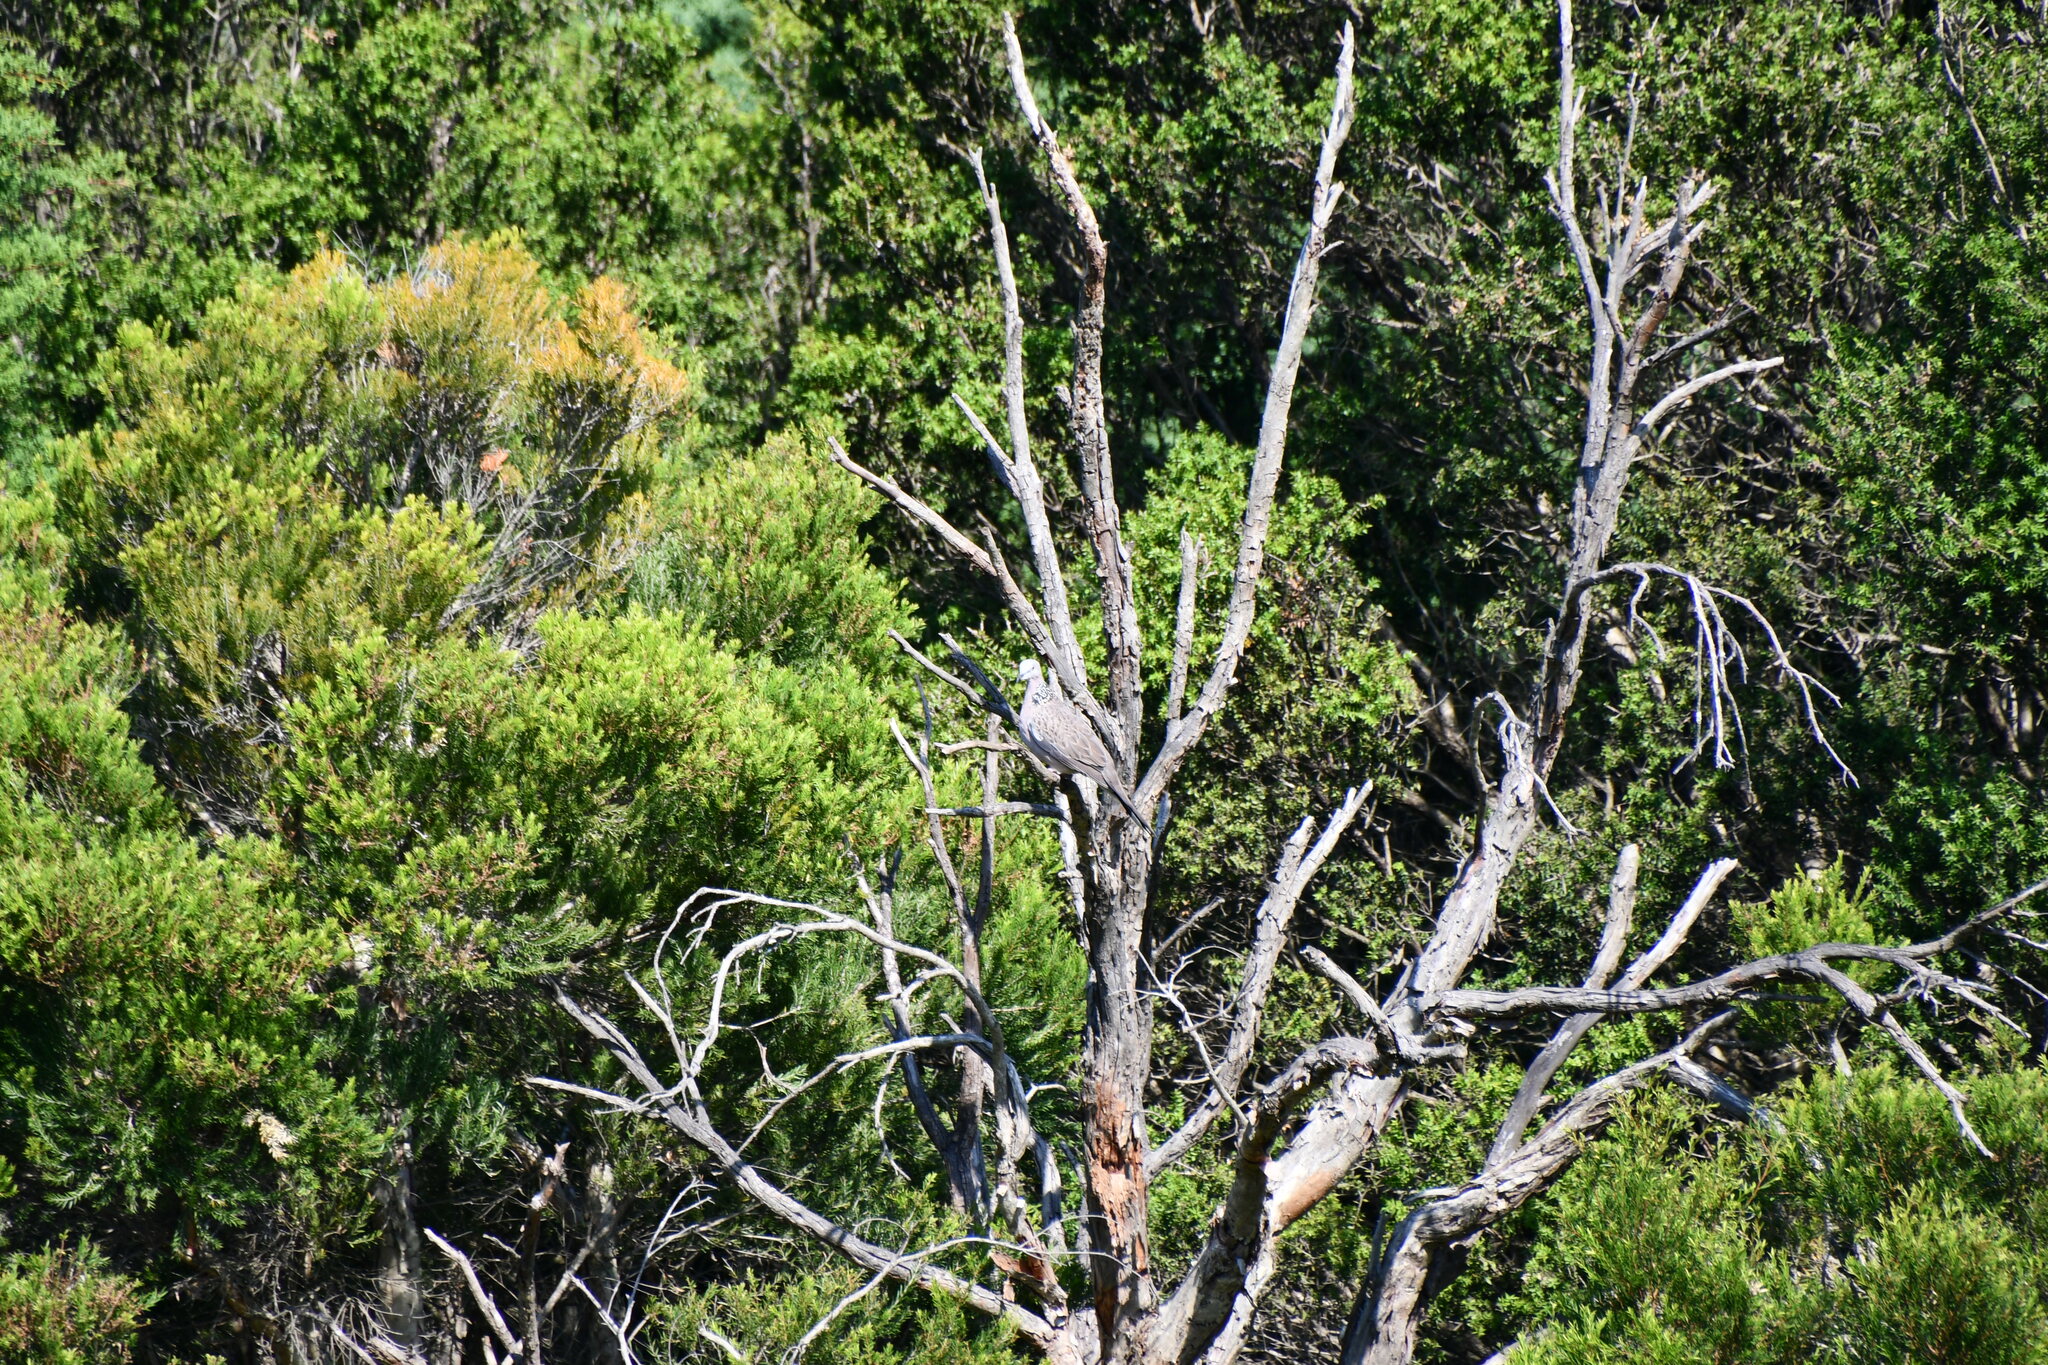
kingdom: Animalia
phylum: Chordata
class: Aves
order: Columbiformes
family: Columbidae
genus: Spilopelia
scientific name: Spilopelia chinensis
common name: Spotted dove
